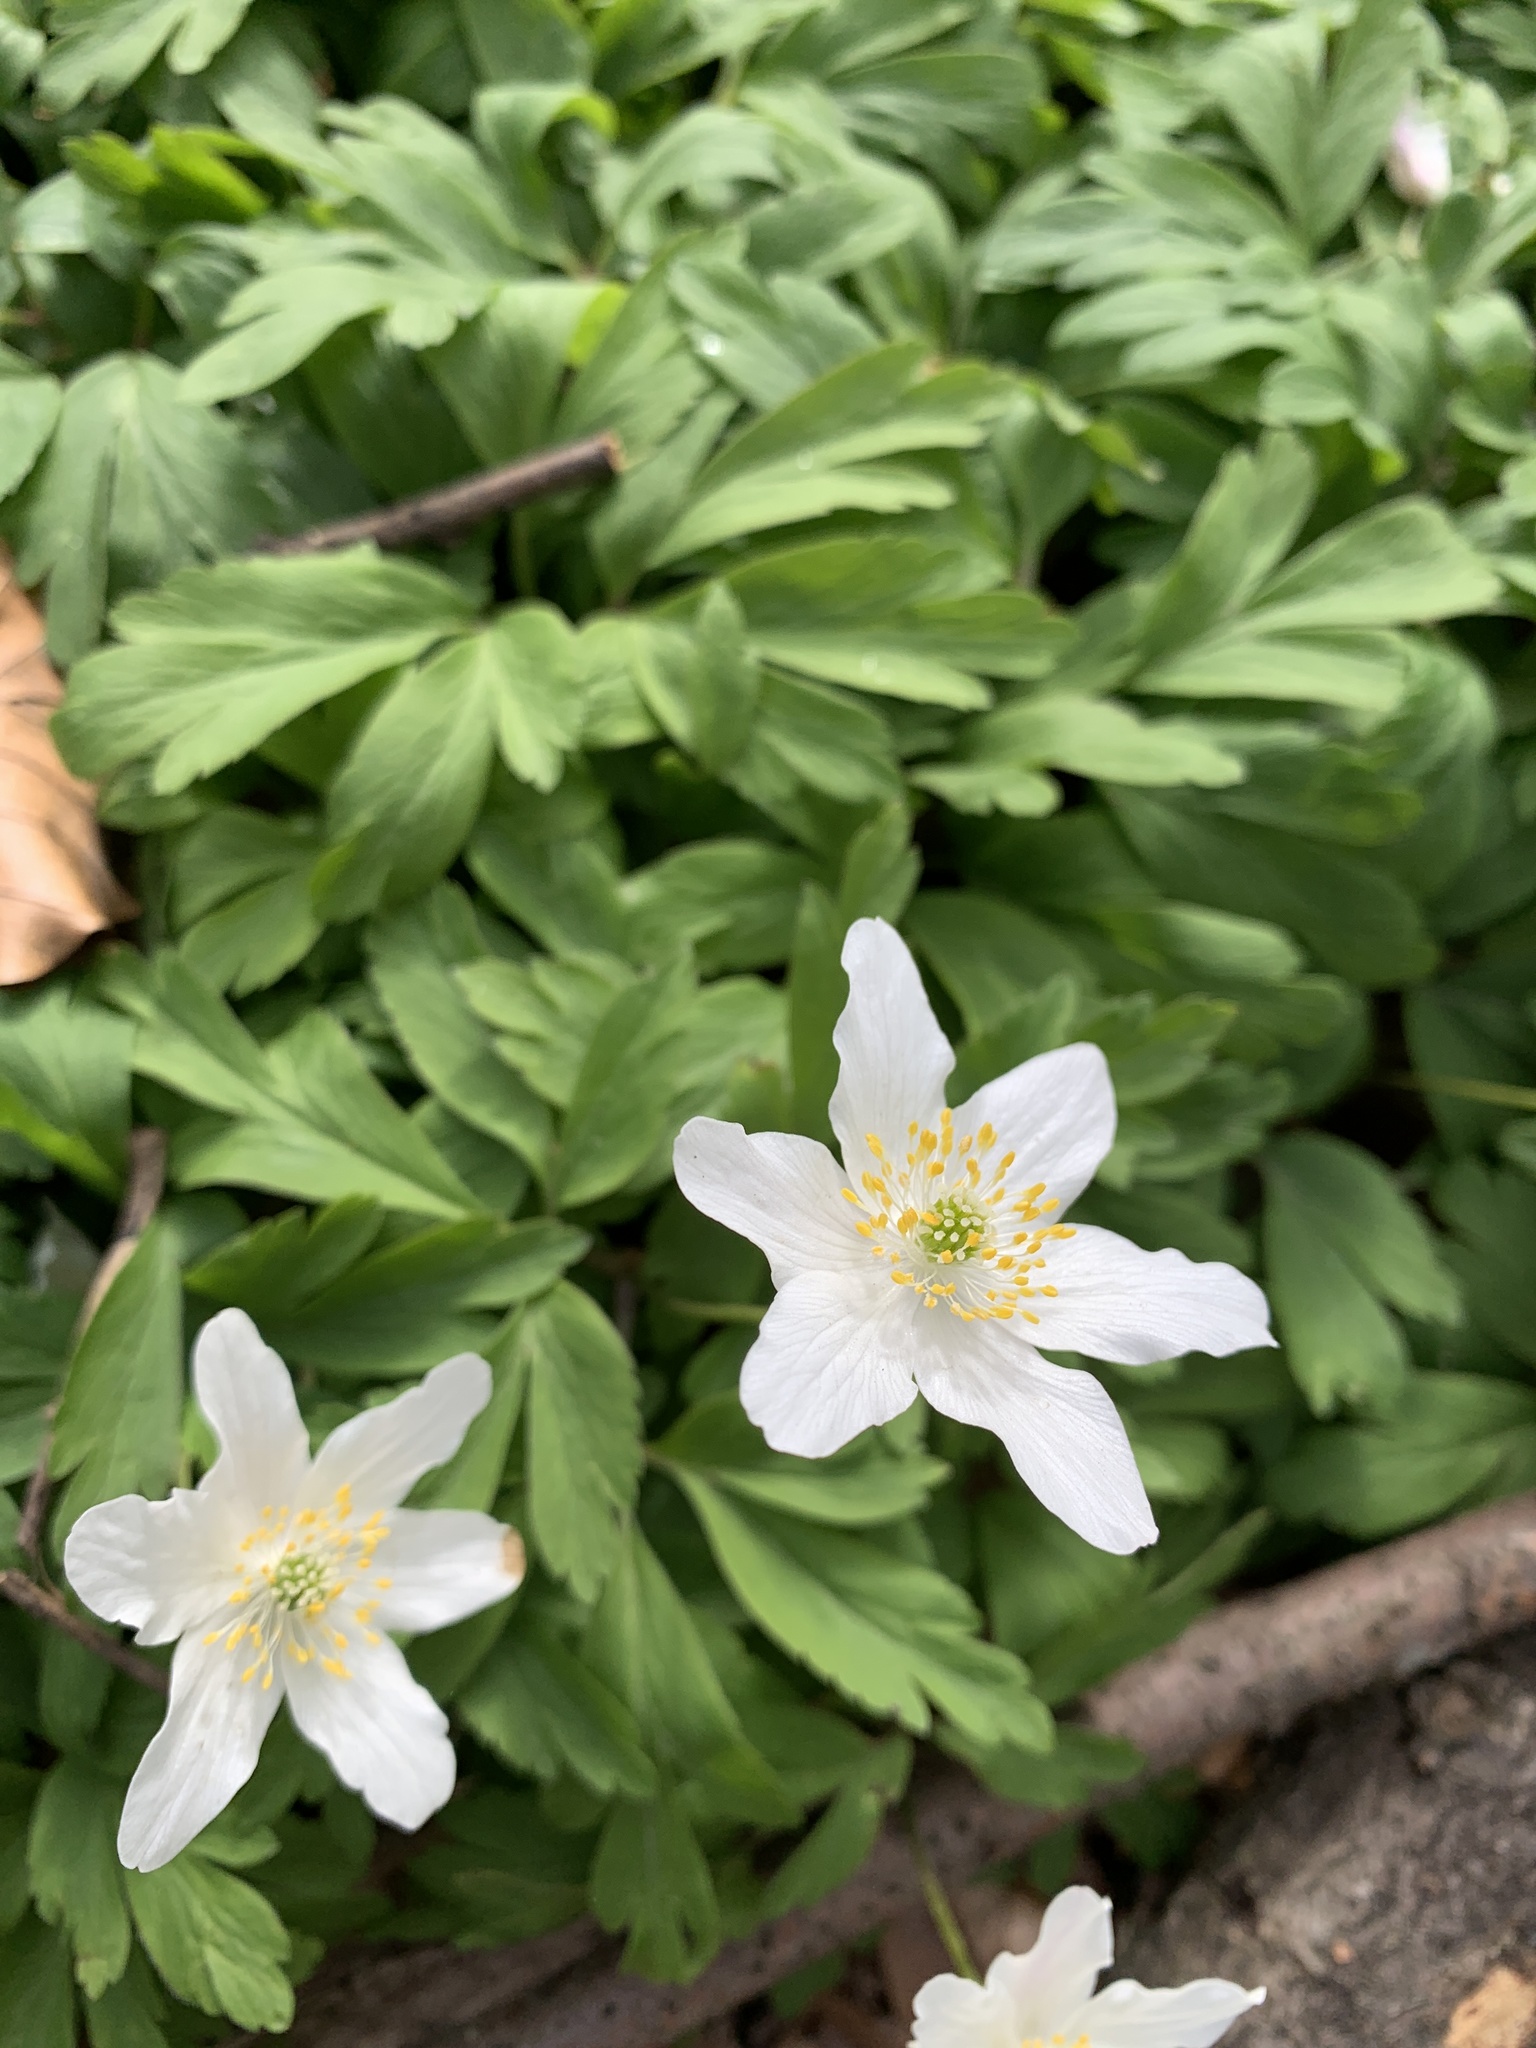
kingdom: Plantae
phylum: Tracheophyta
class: Magnoliopsida
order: Ranunculales
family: Ranunculaceae
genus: Anemone
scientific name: Anemone nemorosa
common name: Wood anemone
